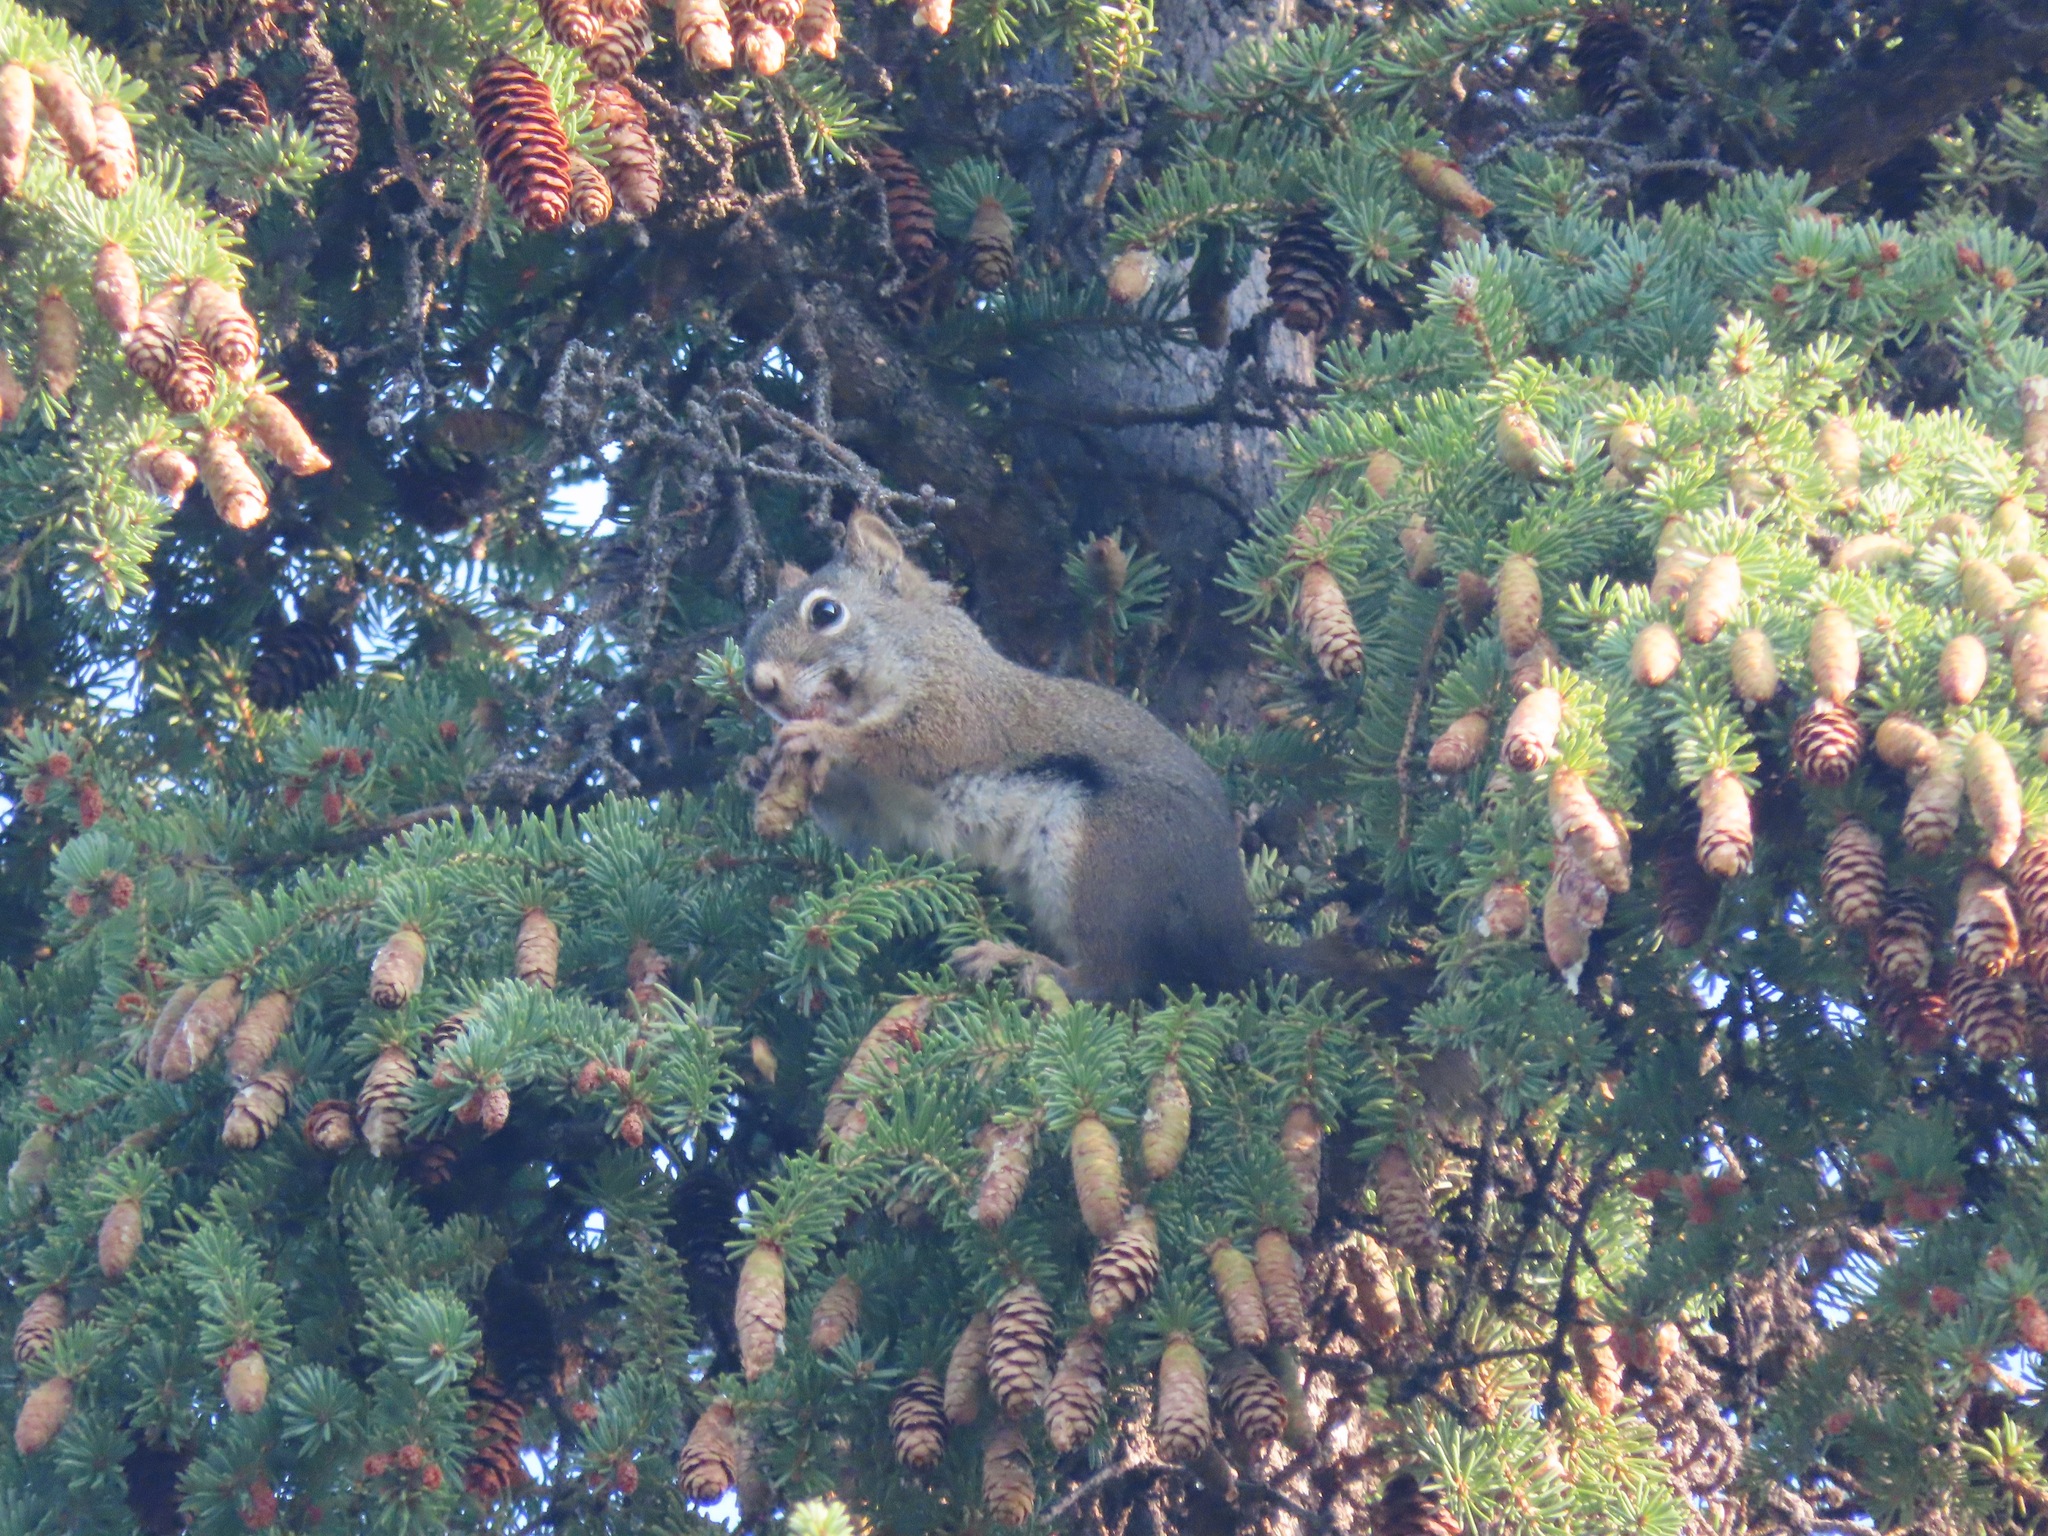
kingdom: Animalia
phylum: Chordata
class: Mammalia
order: Rodentia
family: Sciuridae
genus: Tamiasciurus
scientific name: Tamiasciurus hudsonicus
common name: Red squirrel
